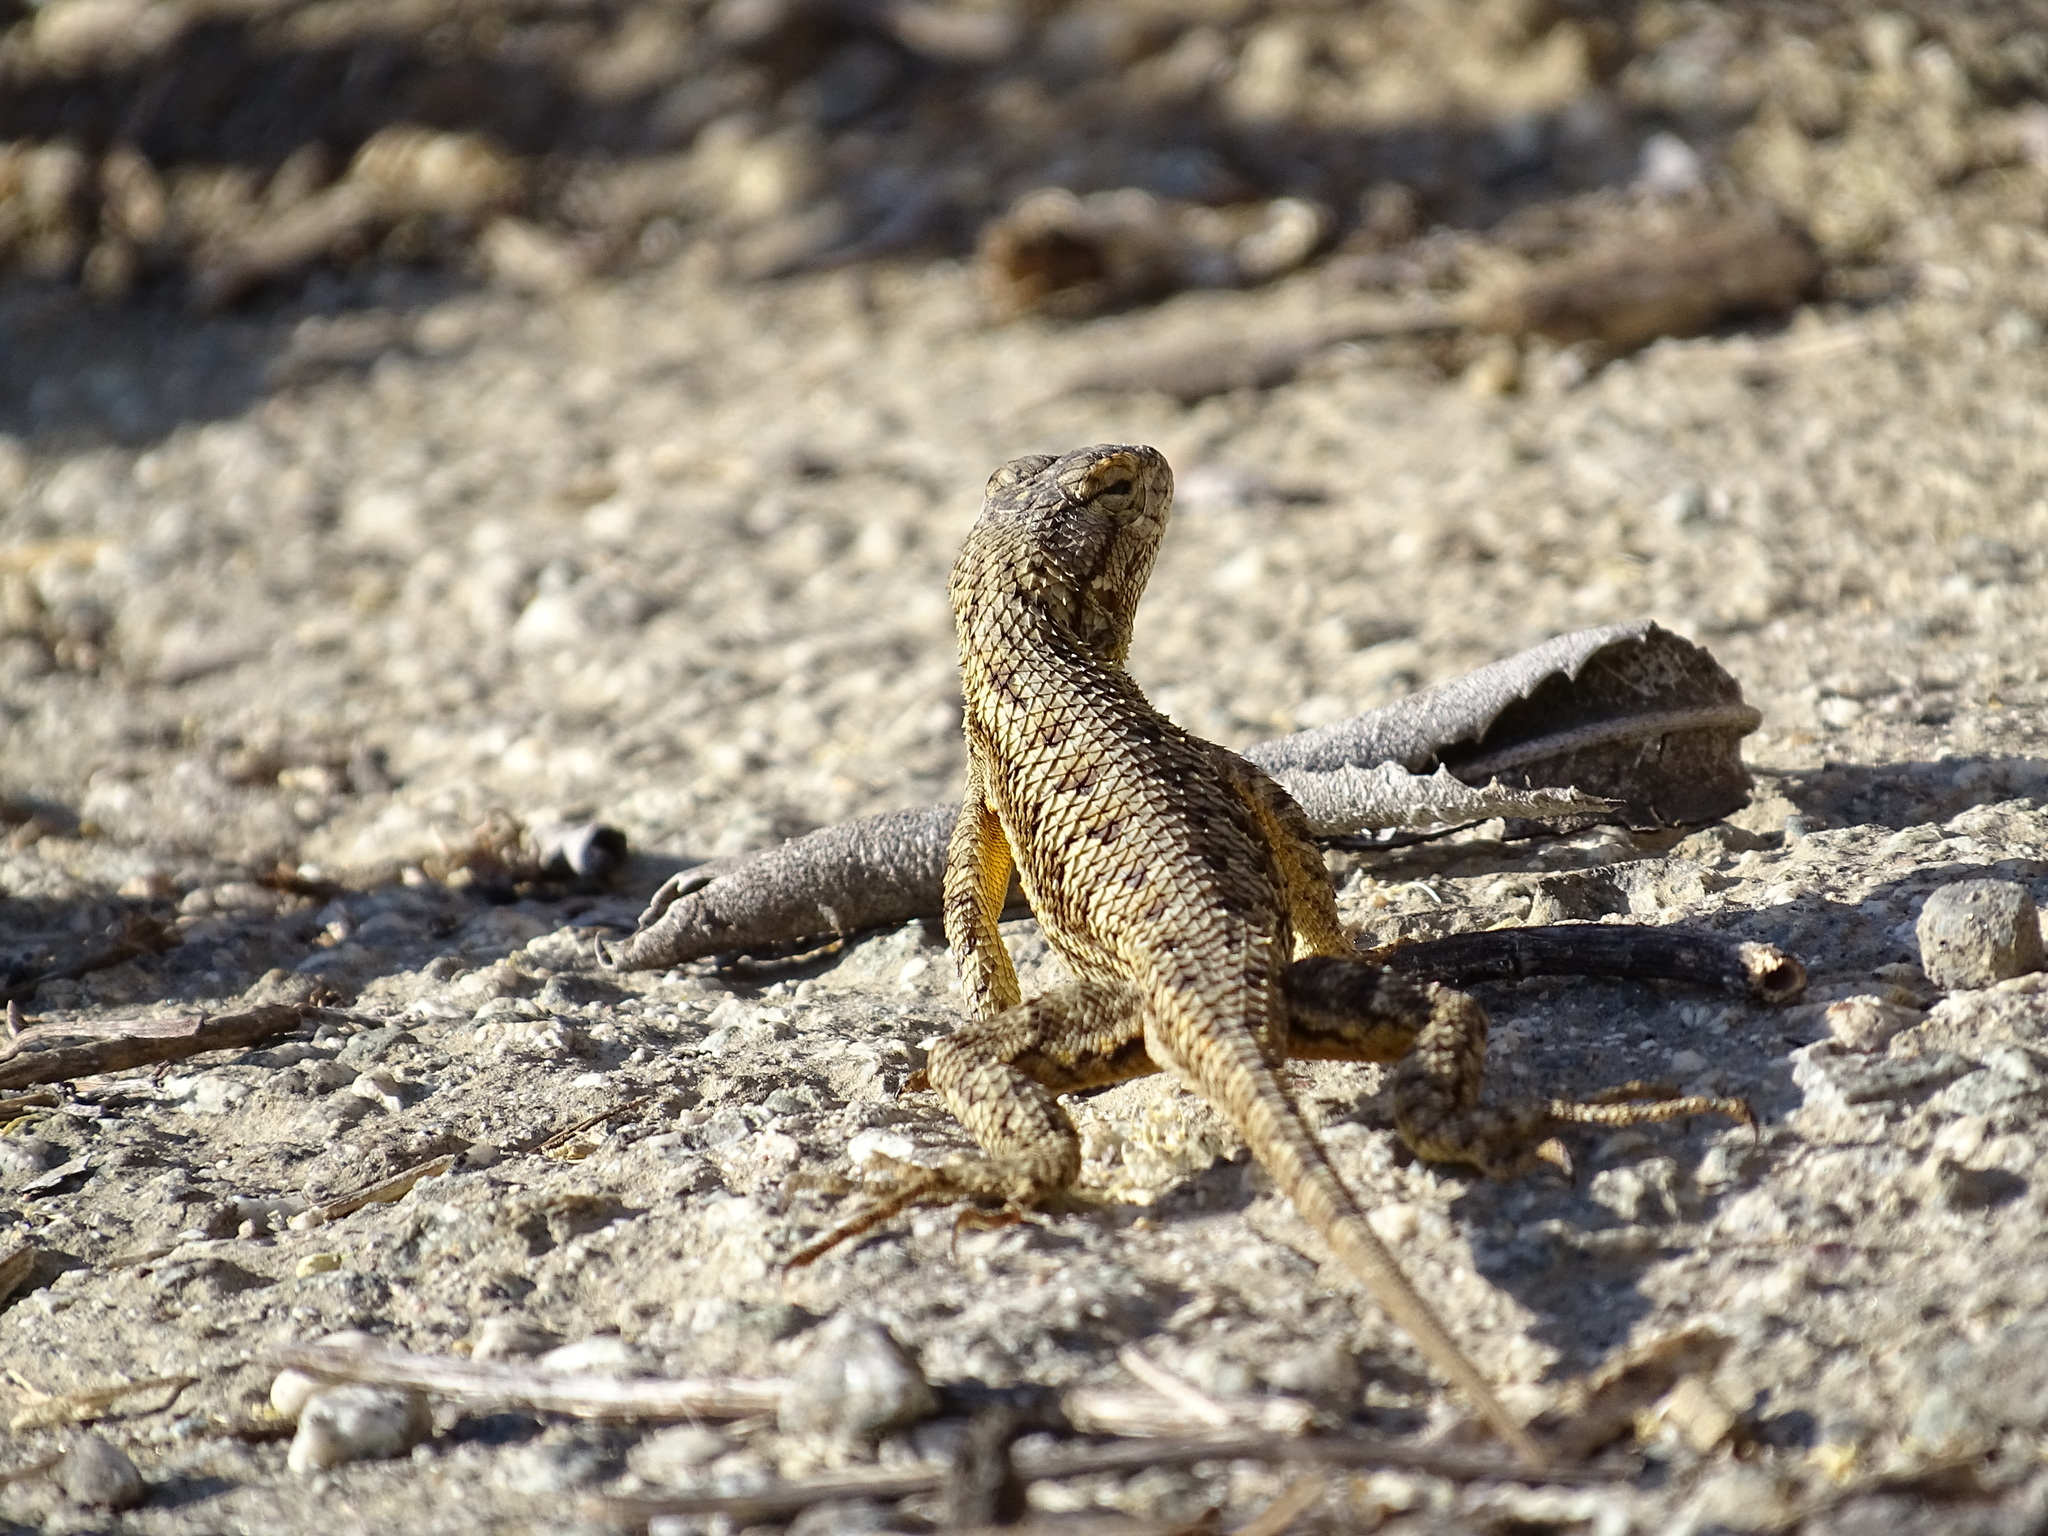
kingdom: Animalia
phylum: Chordata
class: Squamata
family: Phrynosomatidae
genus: Sceloporus
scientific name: Sceloporus occidentalis
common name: Western fence lizard
